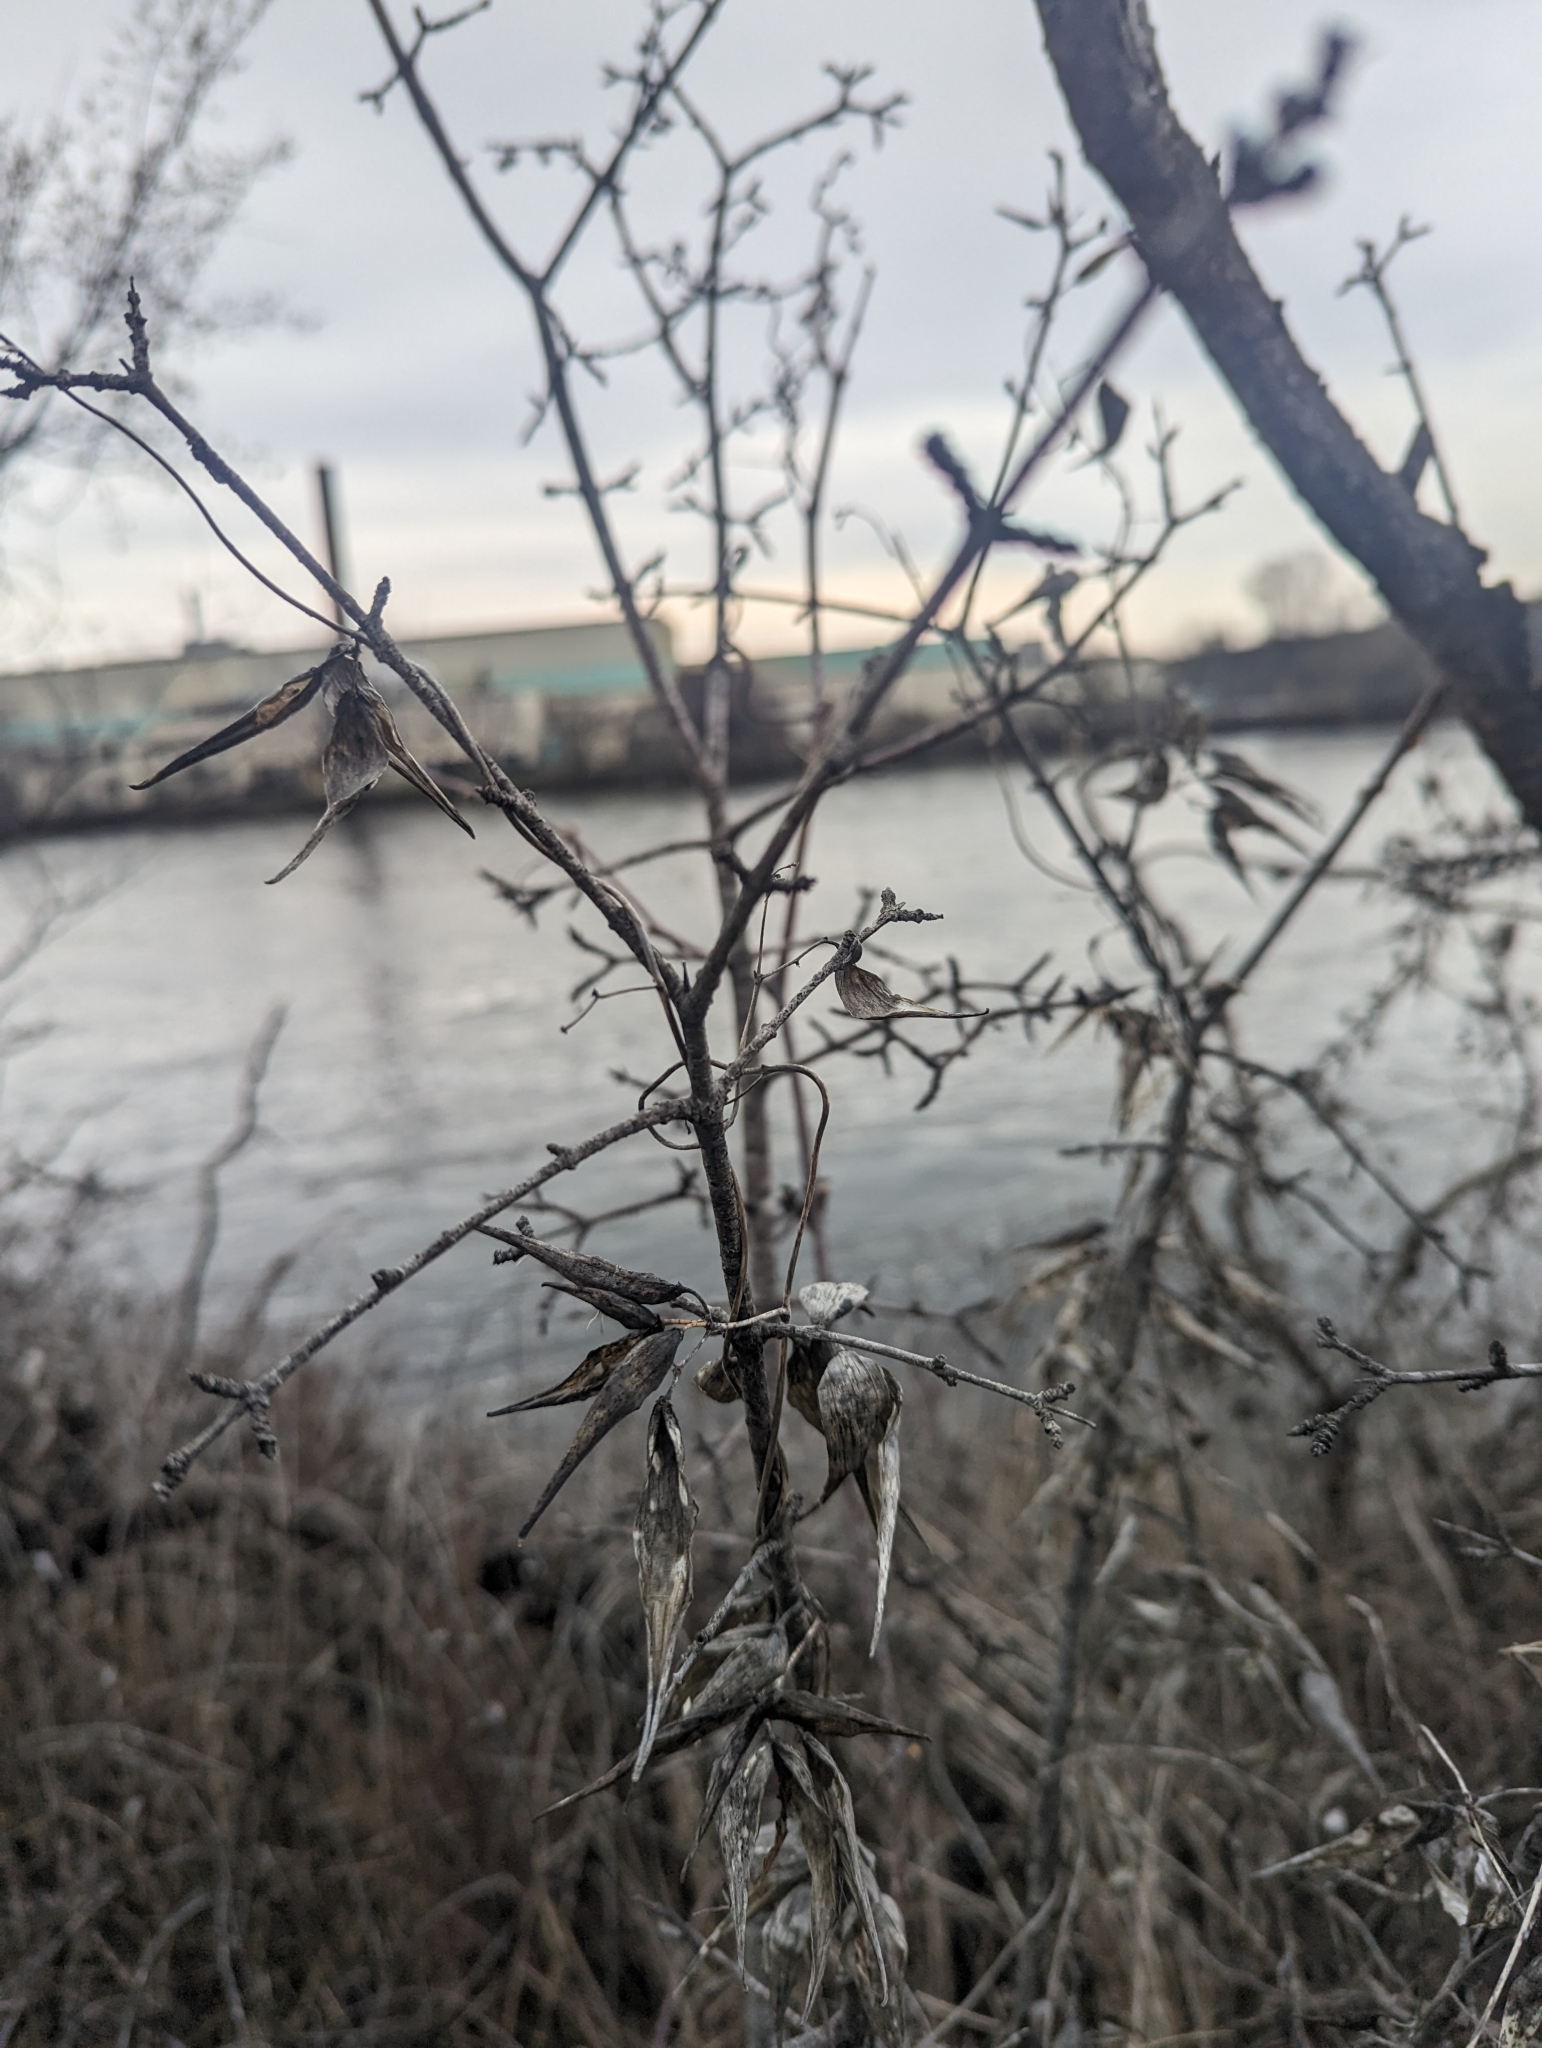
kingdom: Plantae
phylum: Tracheophyta
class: Magnoliopsida
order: Gentianales
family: Apocynaceae
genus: Vincetoxicum
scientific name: Vincetoxicum rossicum
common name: Dog-strangling vine
